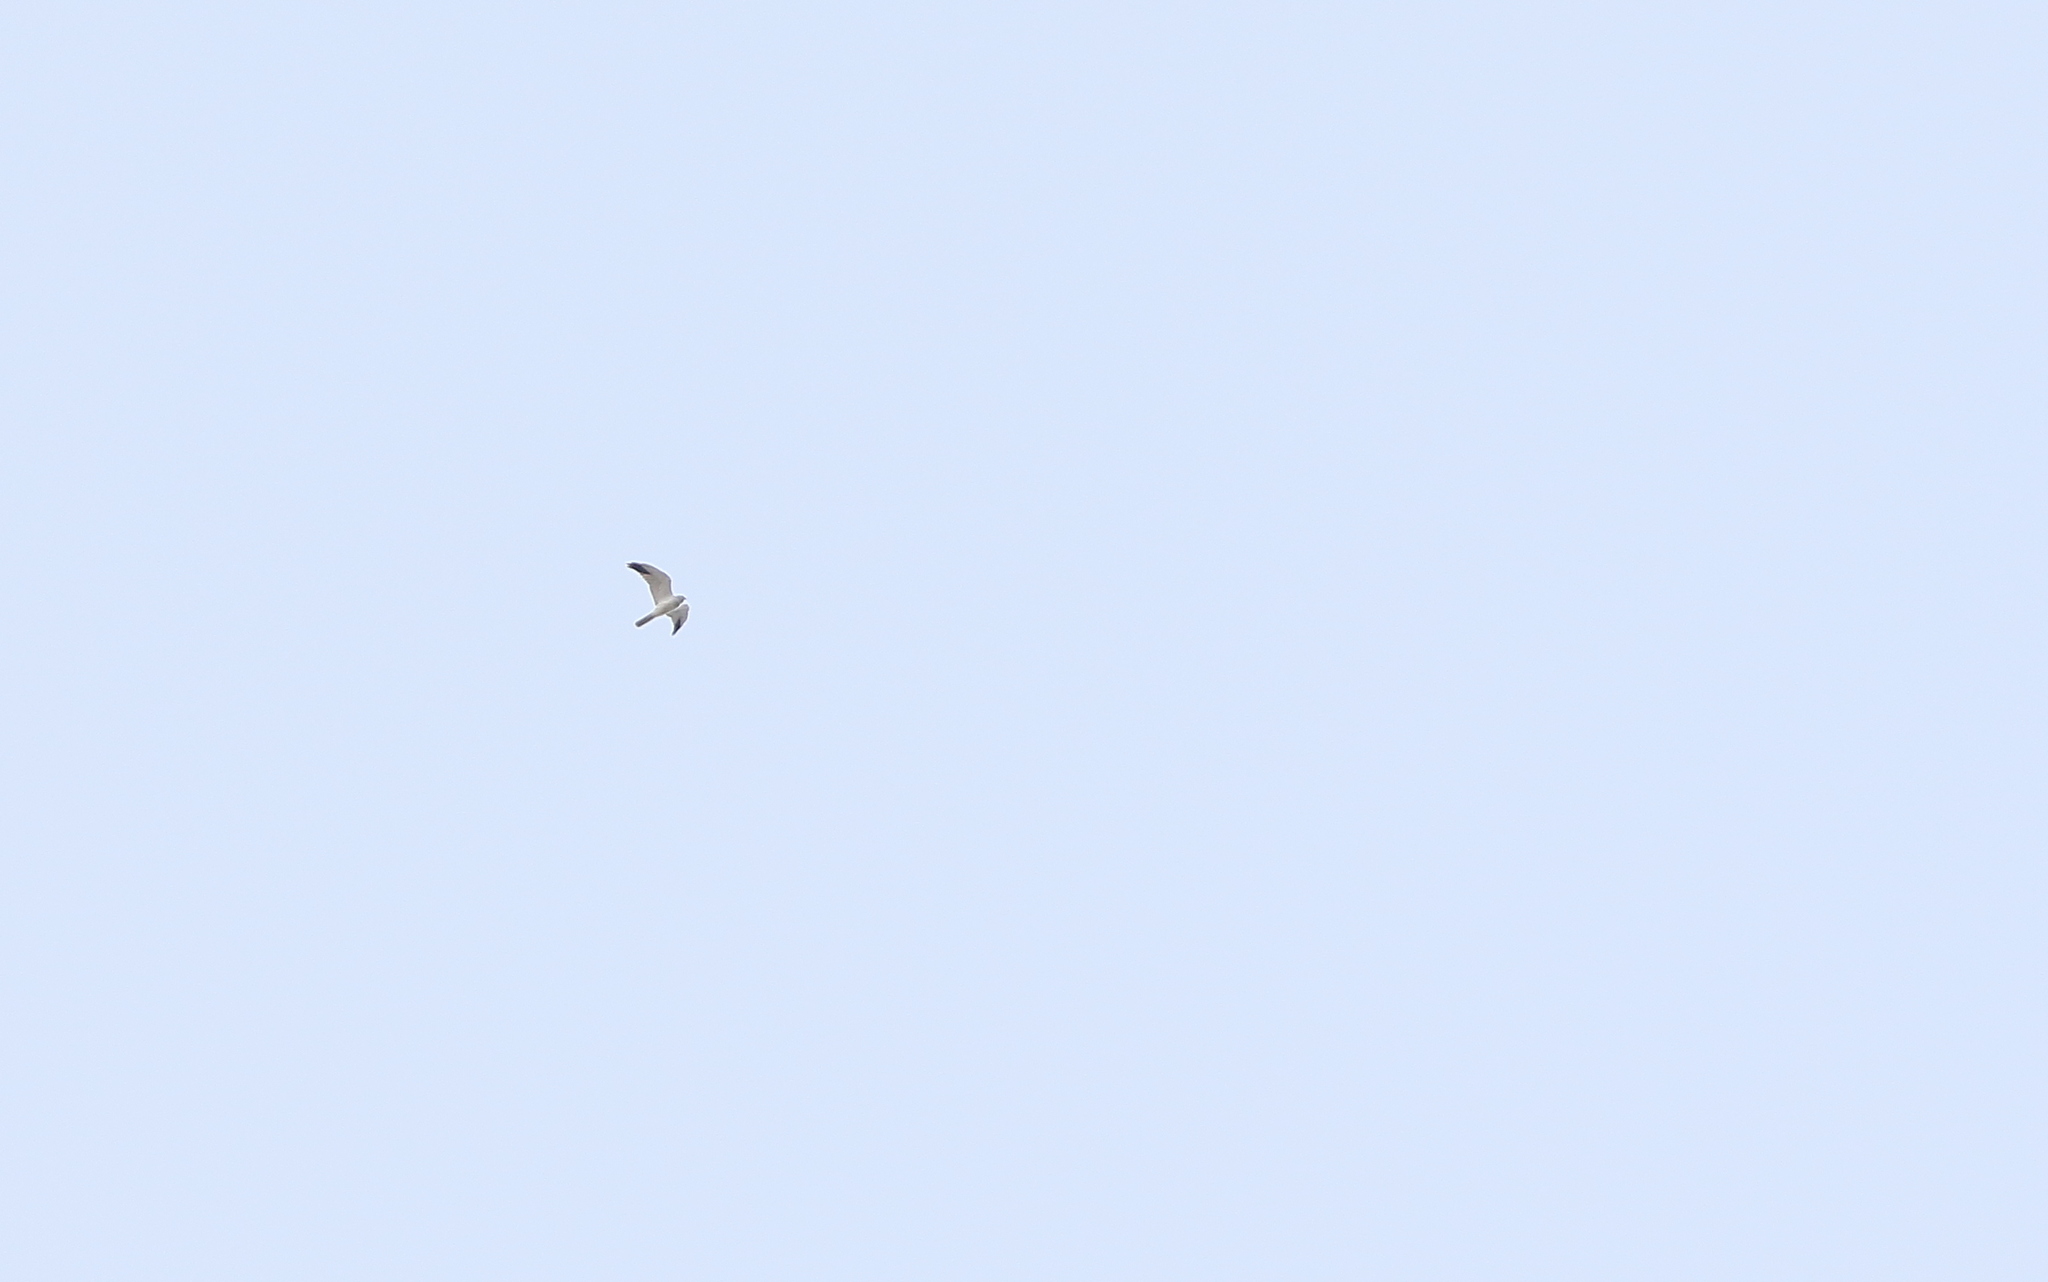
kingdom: Animalia
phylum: Chordata
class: Aves
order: Accipitriformes
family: Accipitridae
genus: Circus
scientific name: Circus macrourus
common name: Pallid harrier
